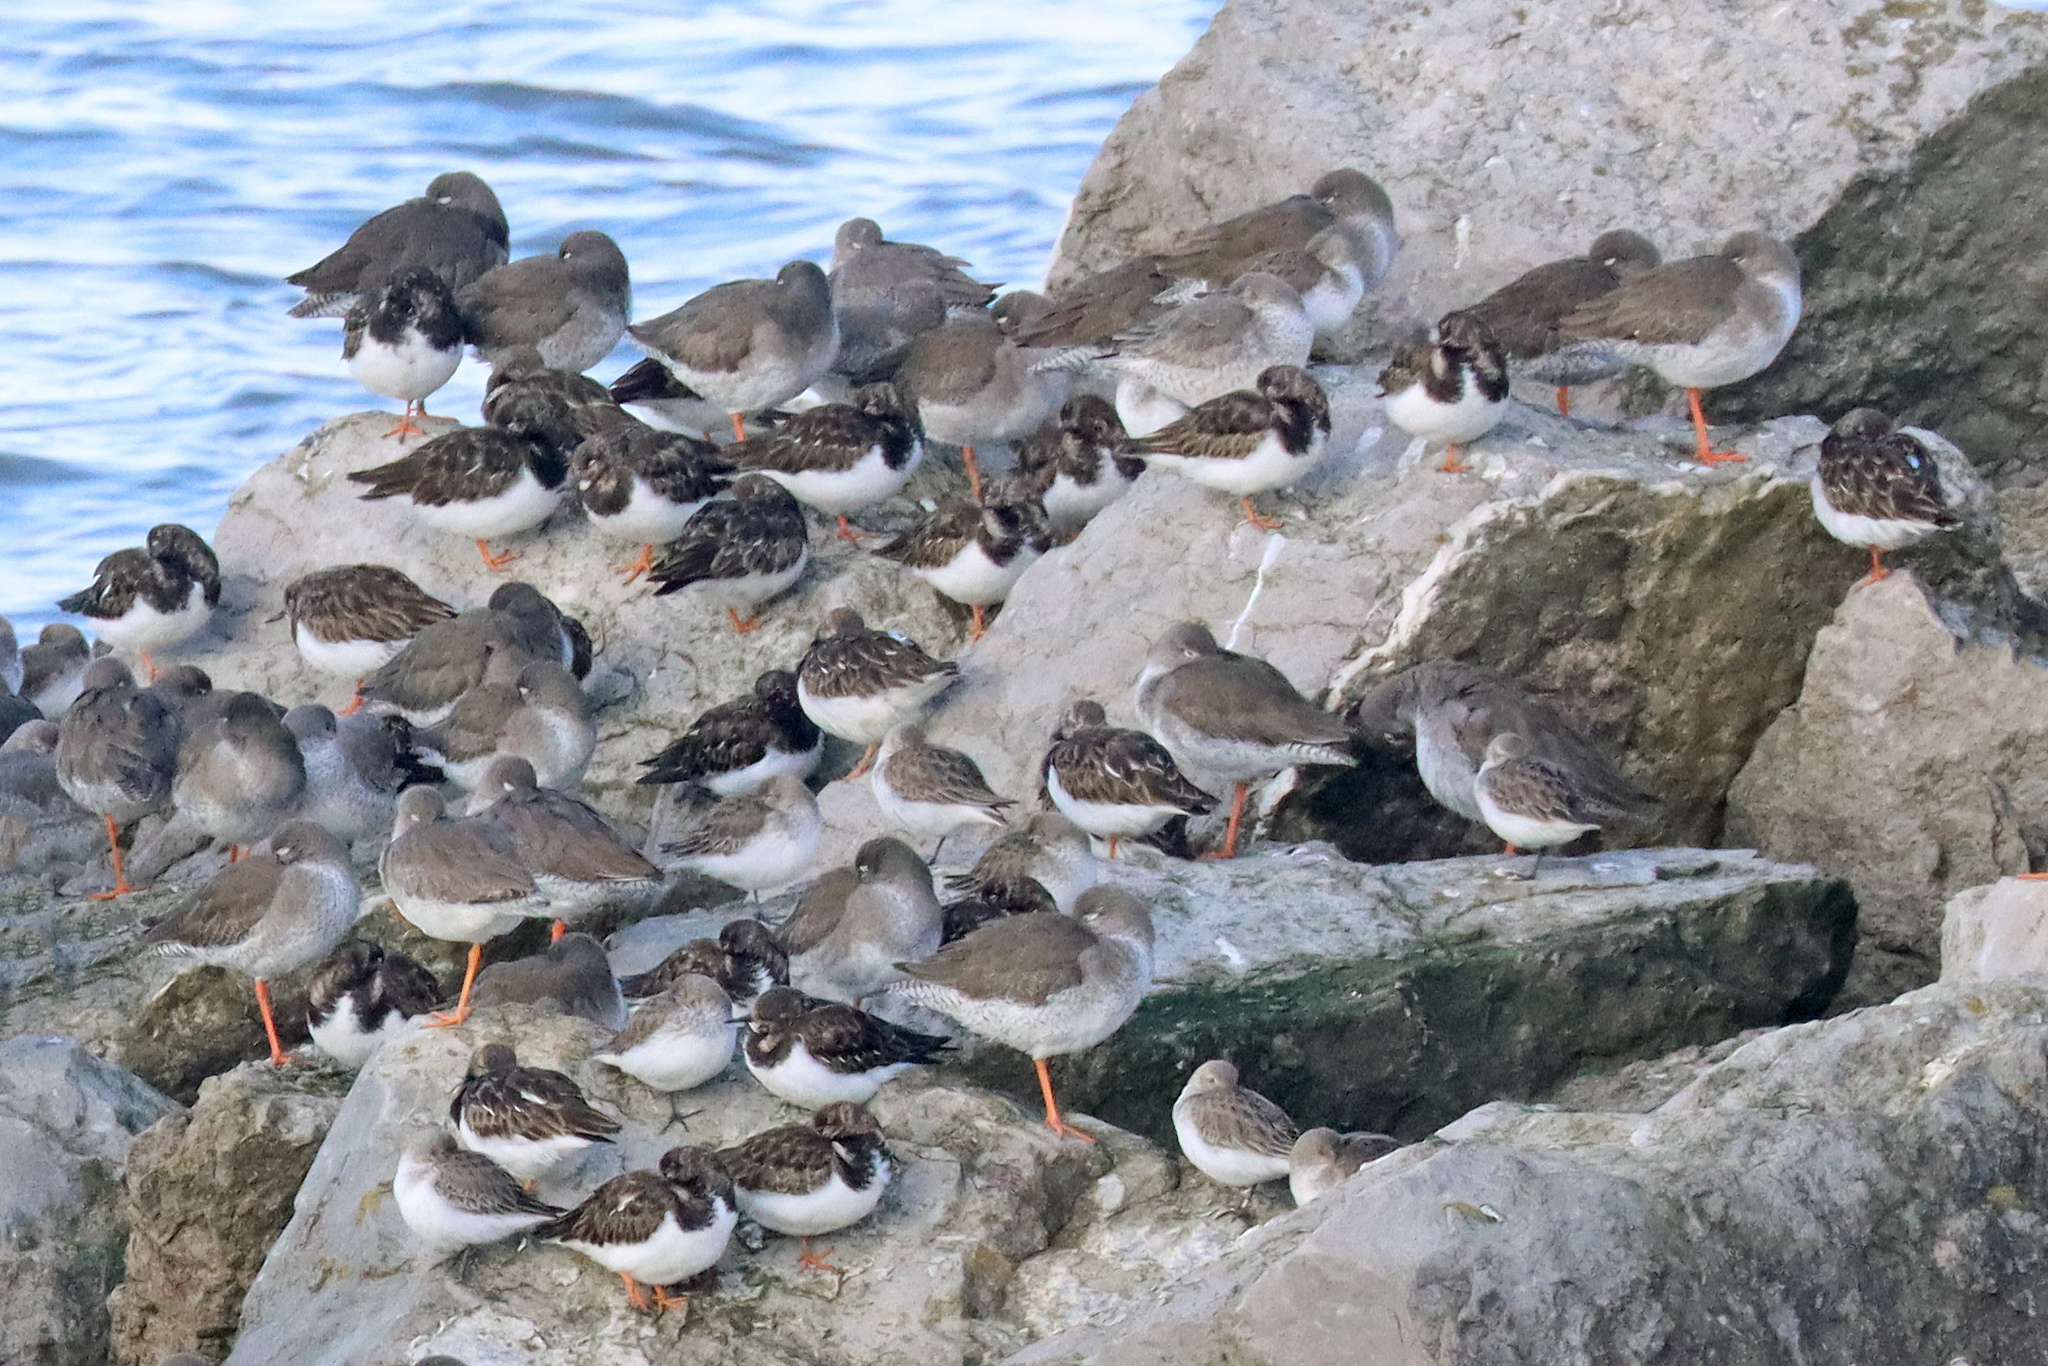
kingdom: Animalia
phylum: Chordata
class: Aves
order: Charadriiformes
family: Scolopacidae
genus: Calidris
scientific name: Calidris alpina
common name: Dunlin
